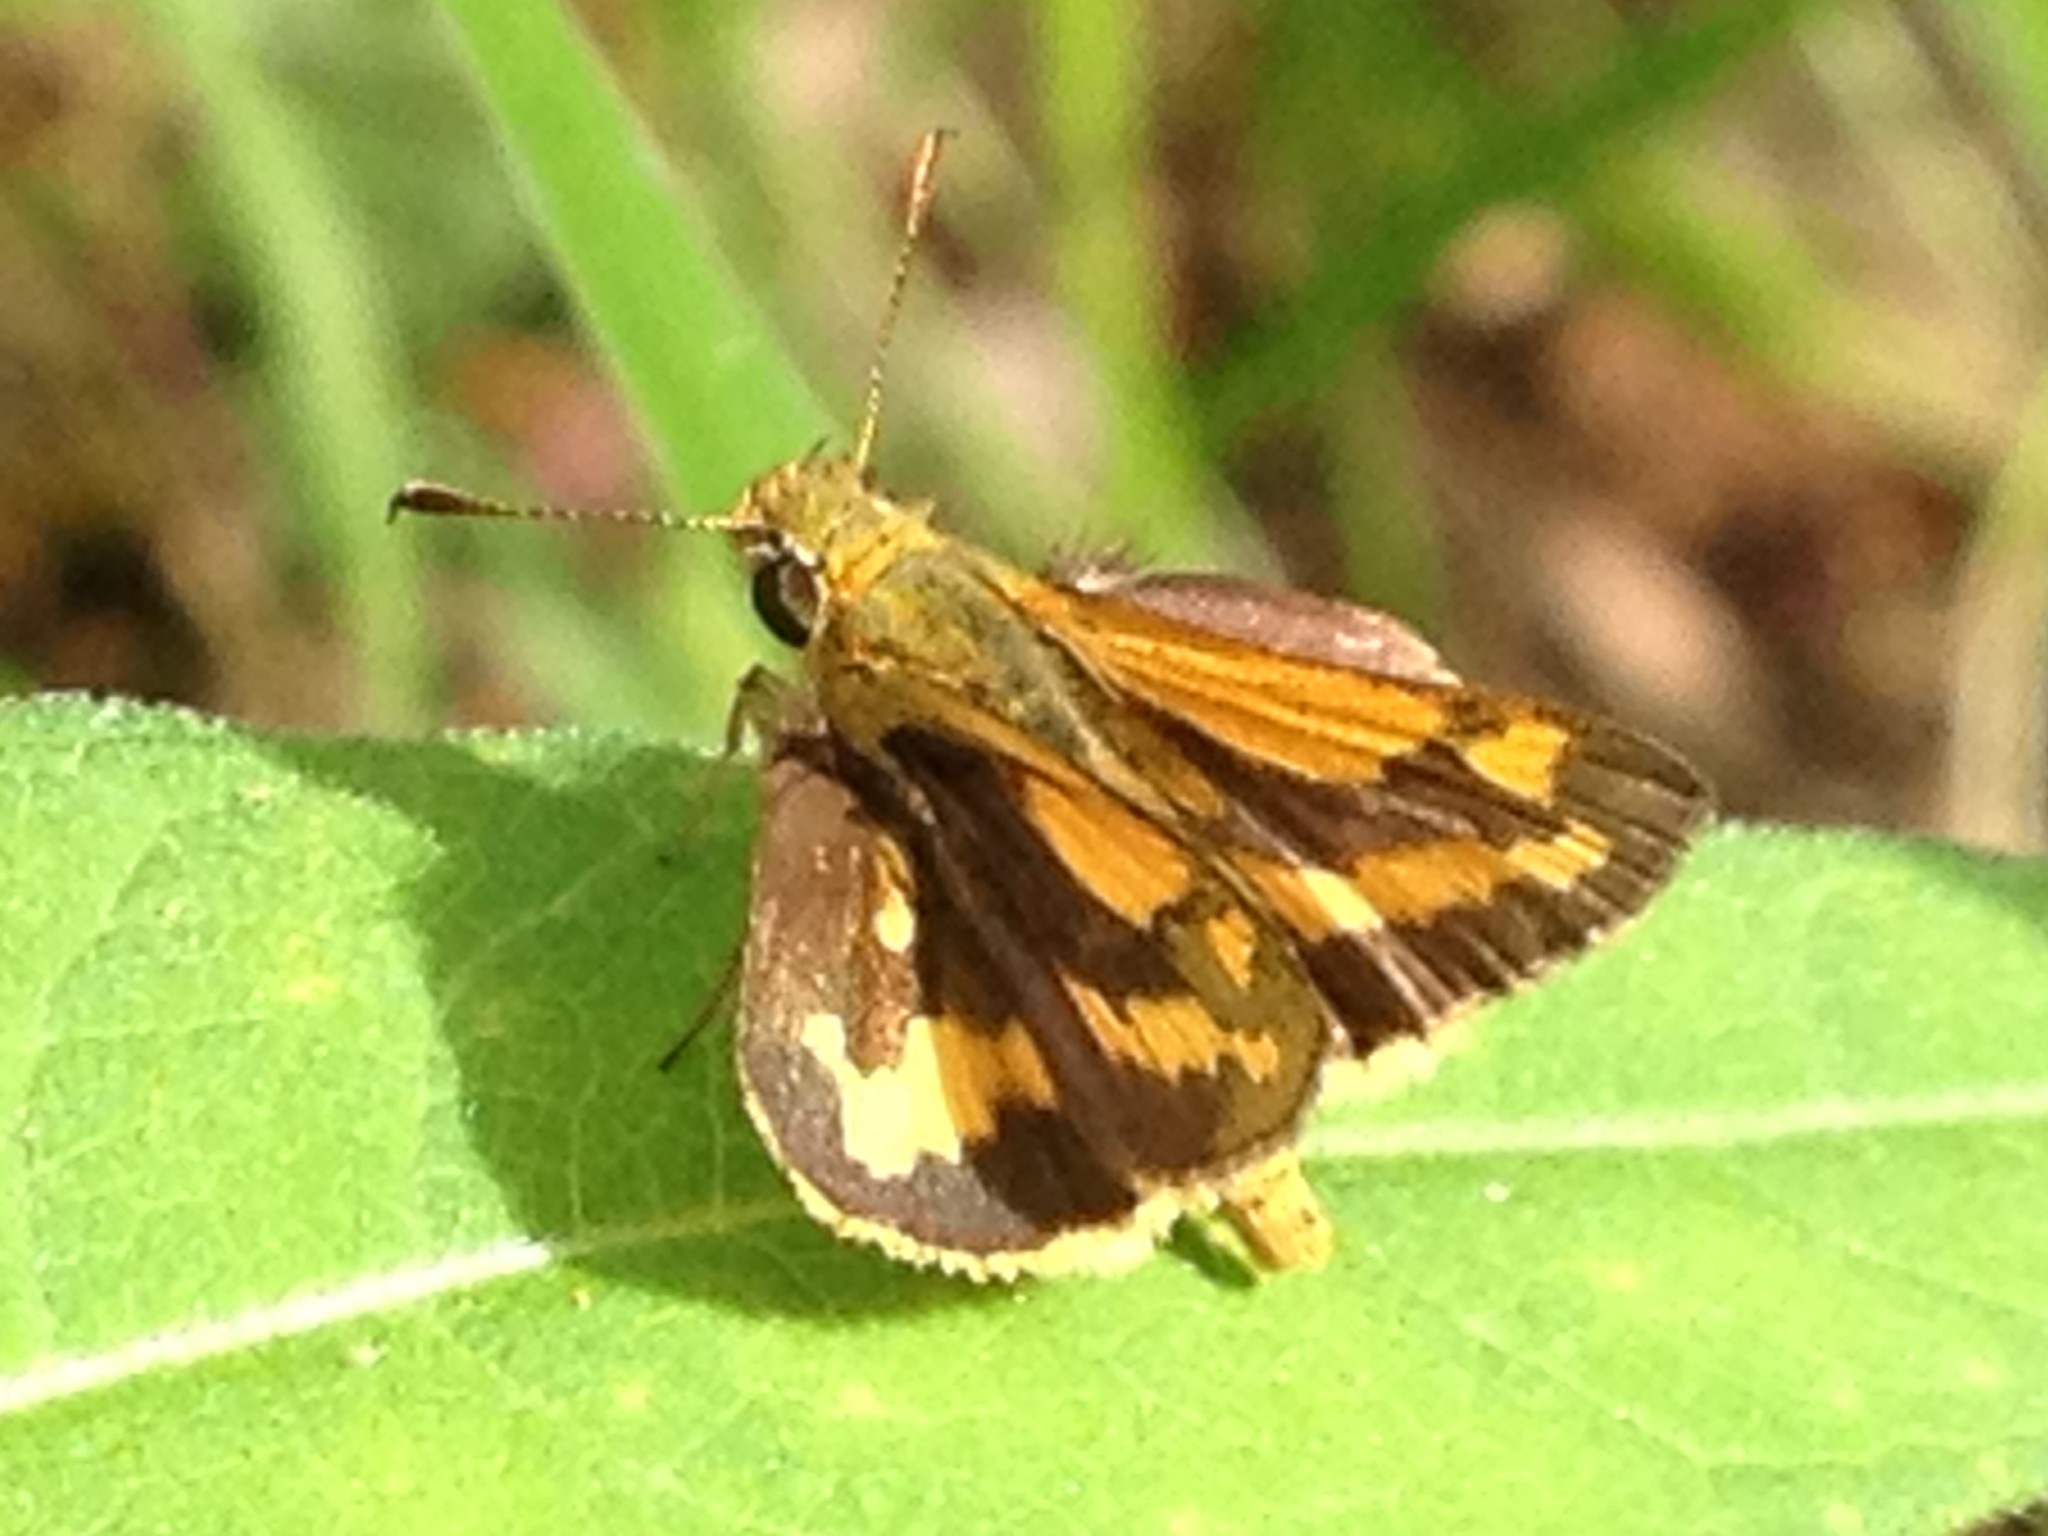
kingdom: Animalia
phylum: Arthropoda
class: Insecta
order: Lepidoptera
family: Hesperiidae
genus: Ocybadistes
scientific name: Ocybadistes walkeri
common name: Yellow-banded dart
